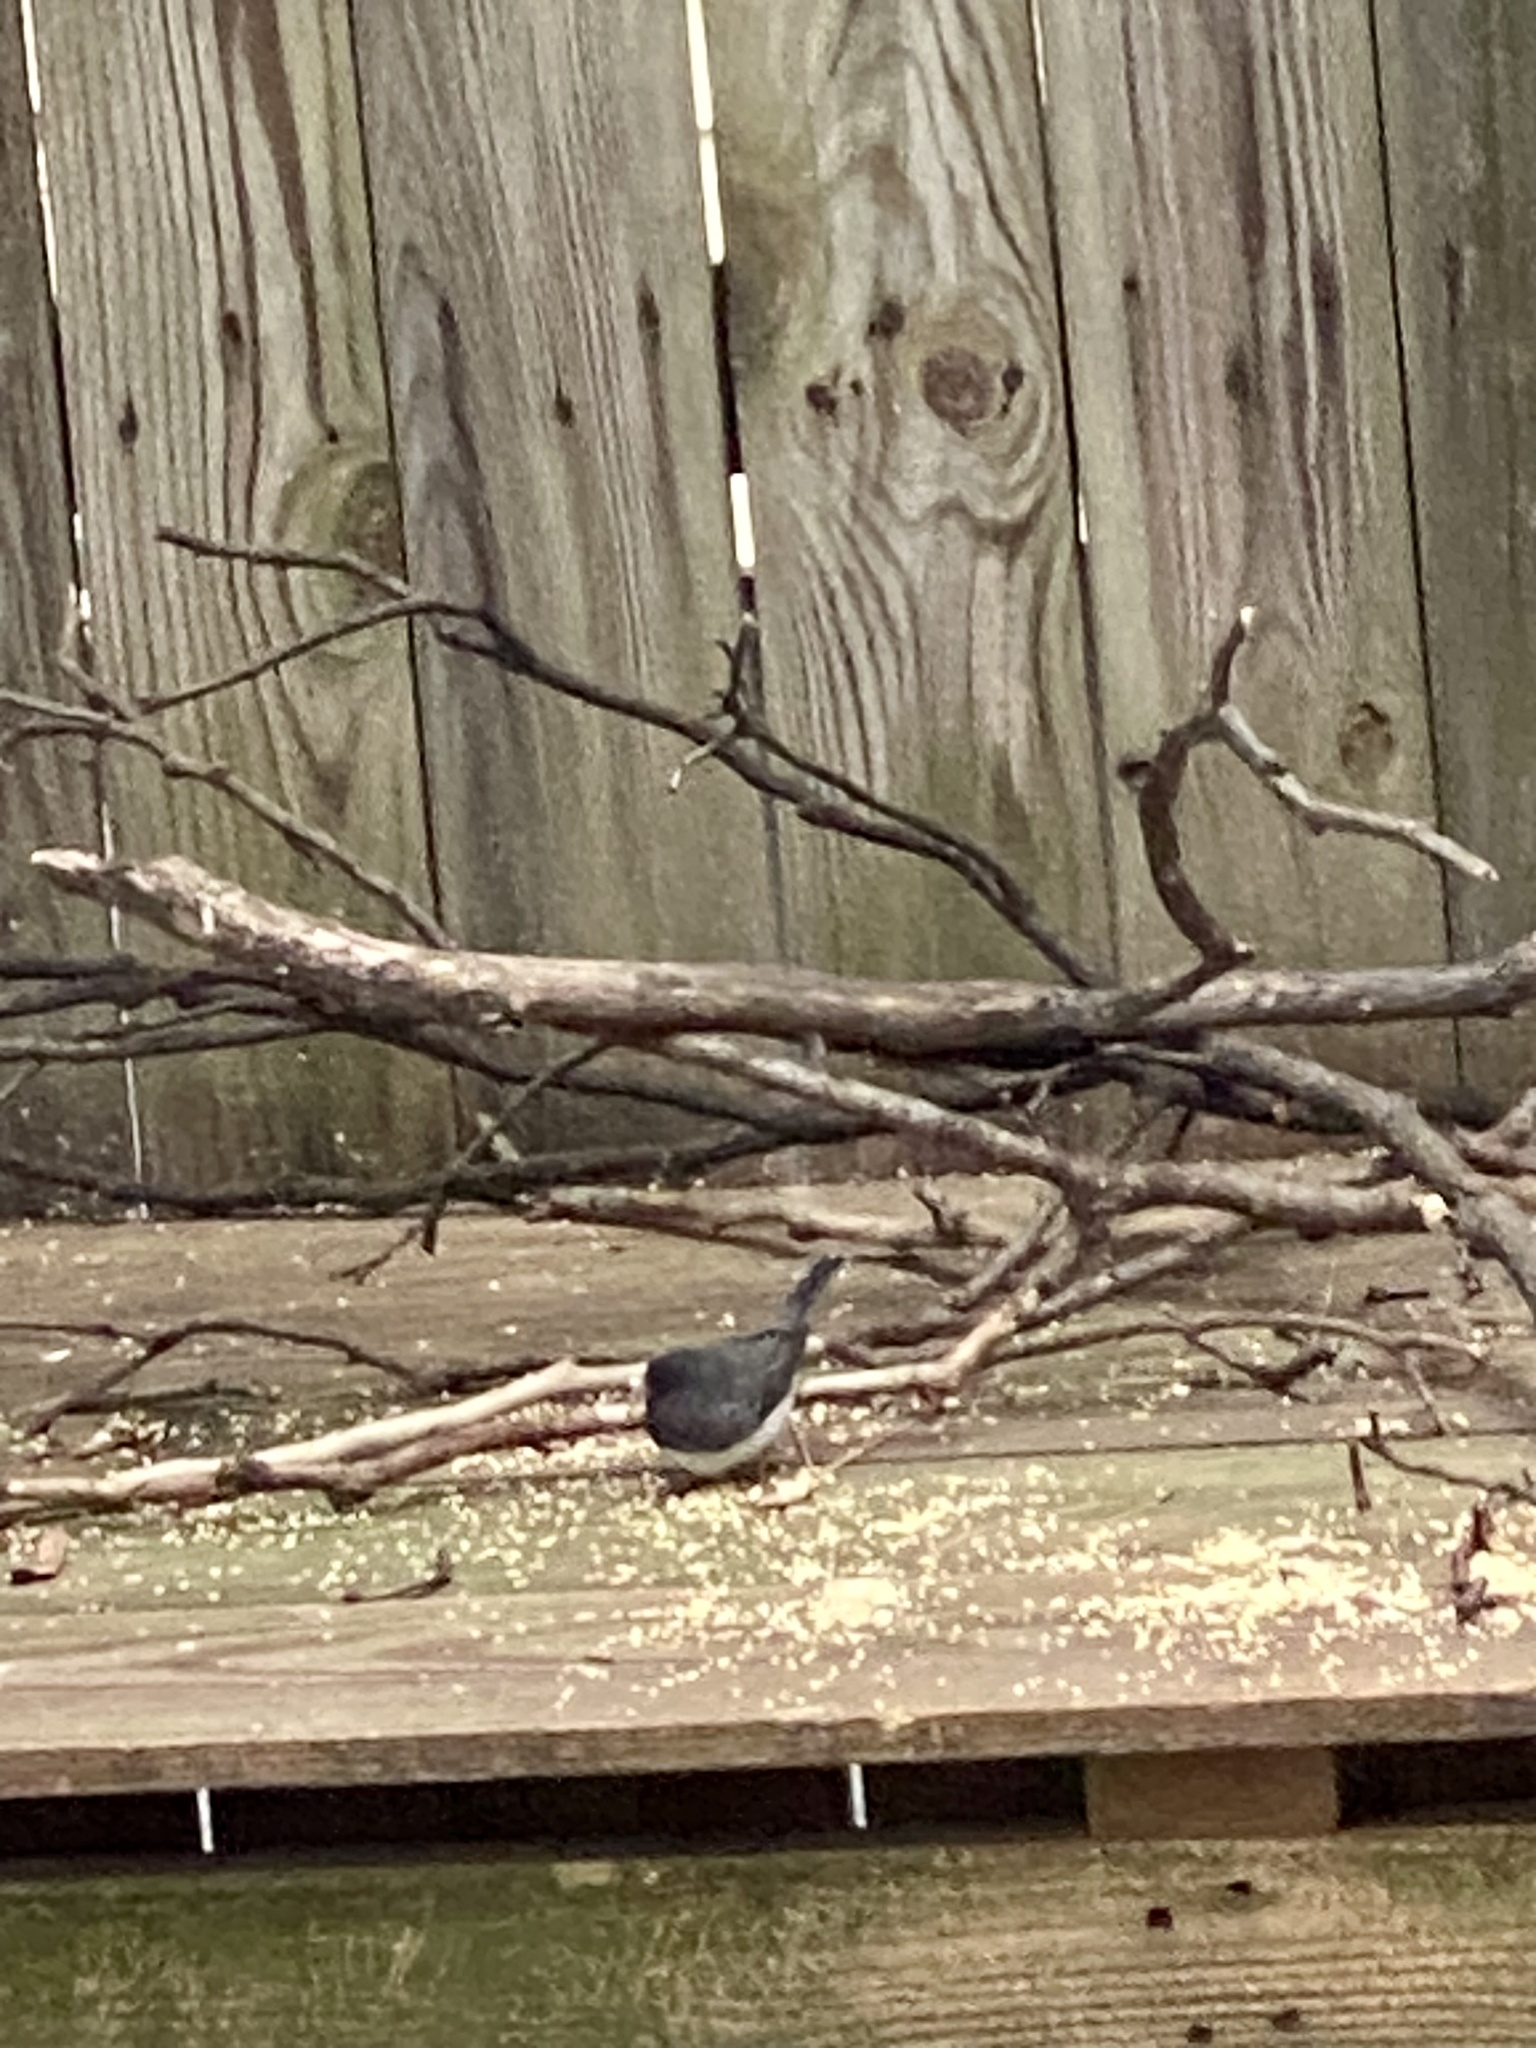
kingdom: Animalia
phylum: Chordata
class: Aves
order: Passeriformes
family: Passerellidae
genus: Junco
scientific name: Junco hyemalis
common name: Dark-eyed junco
